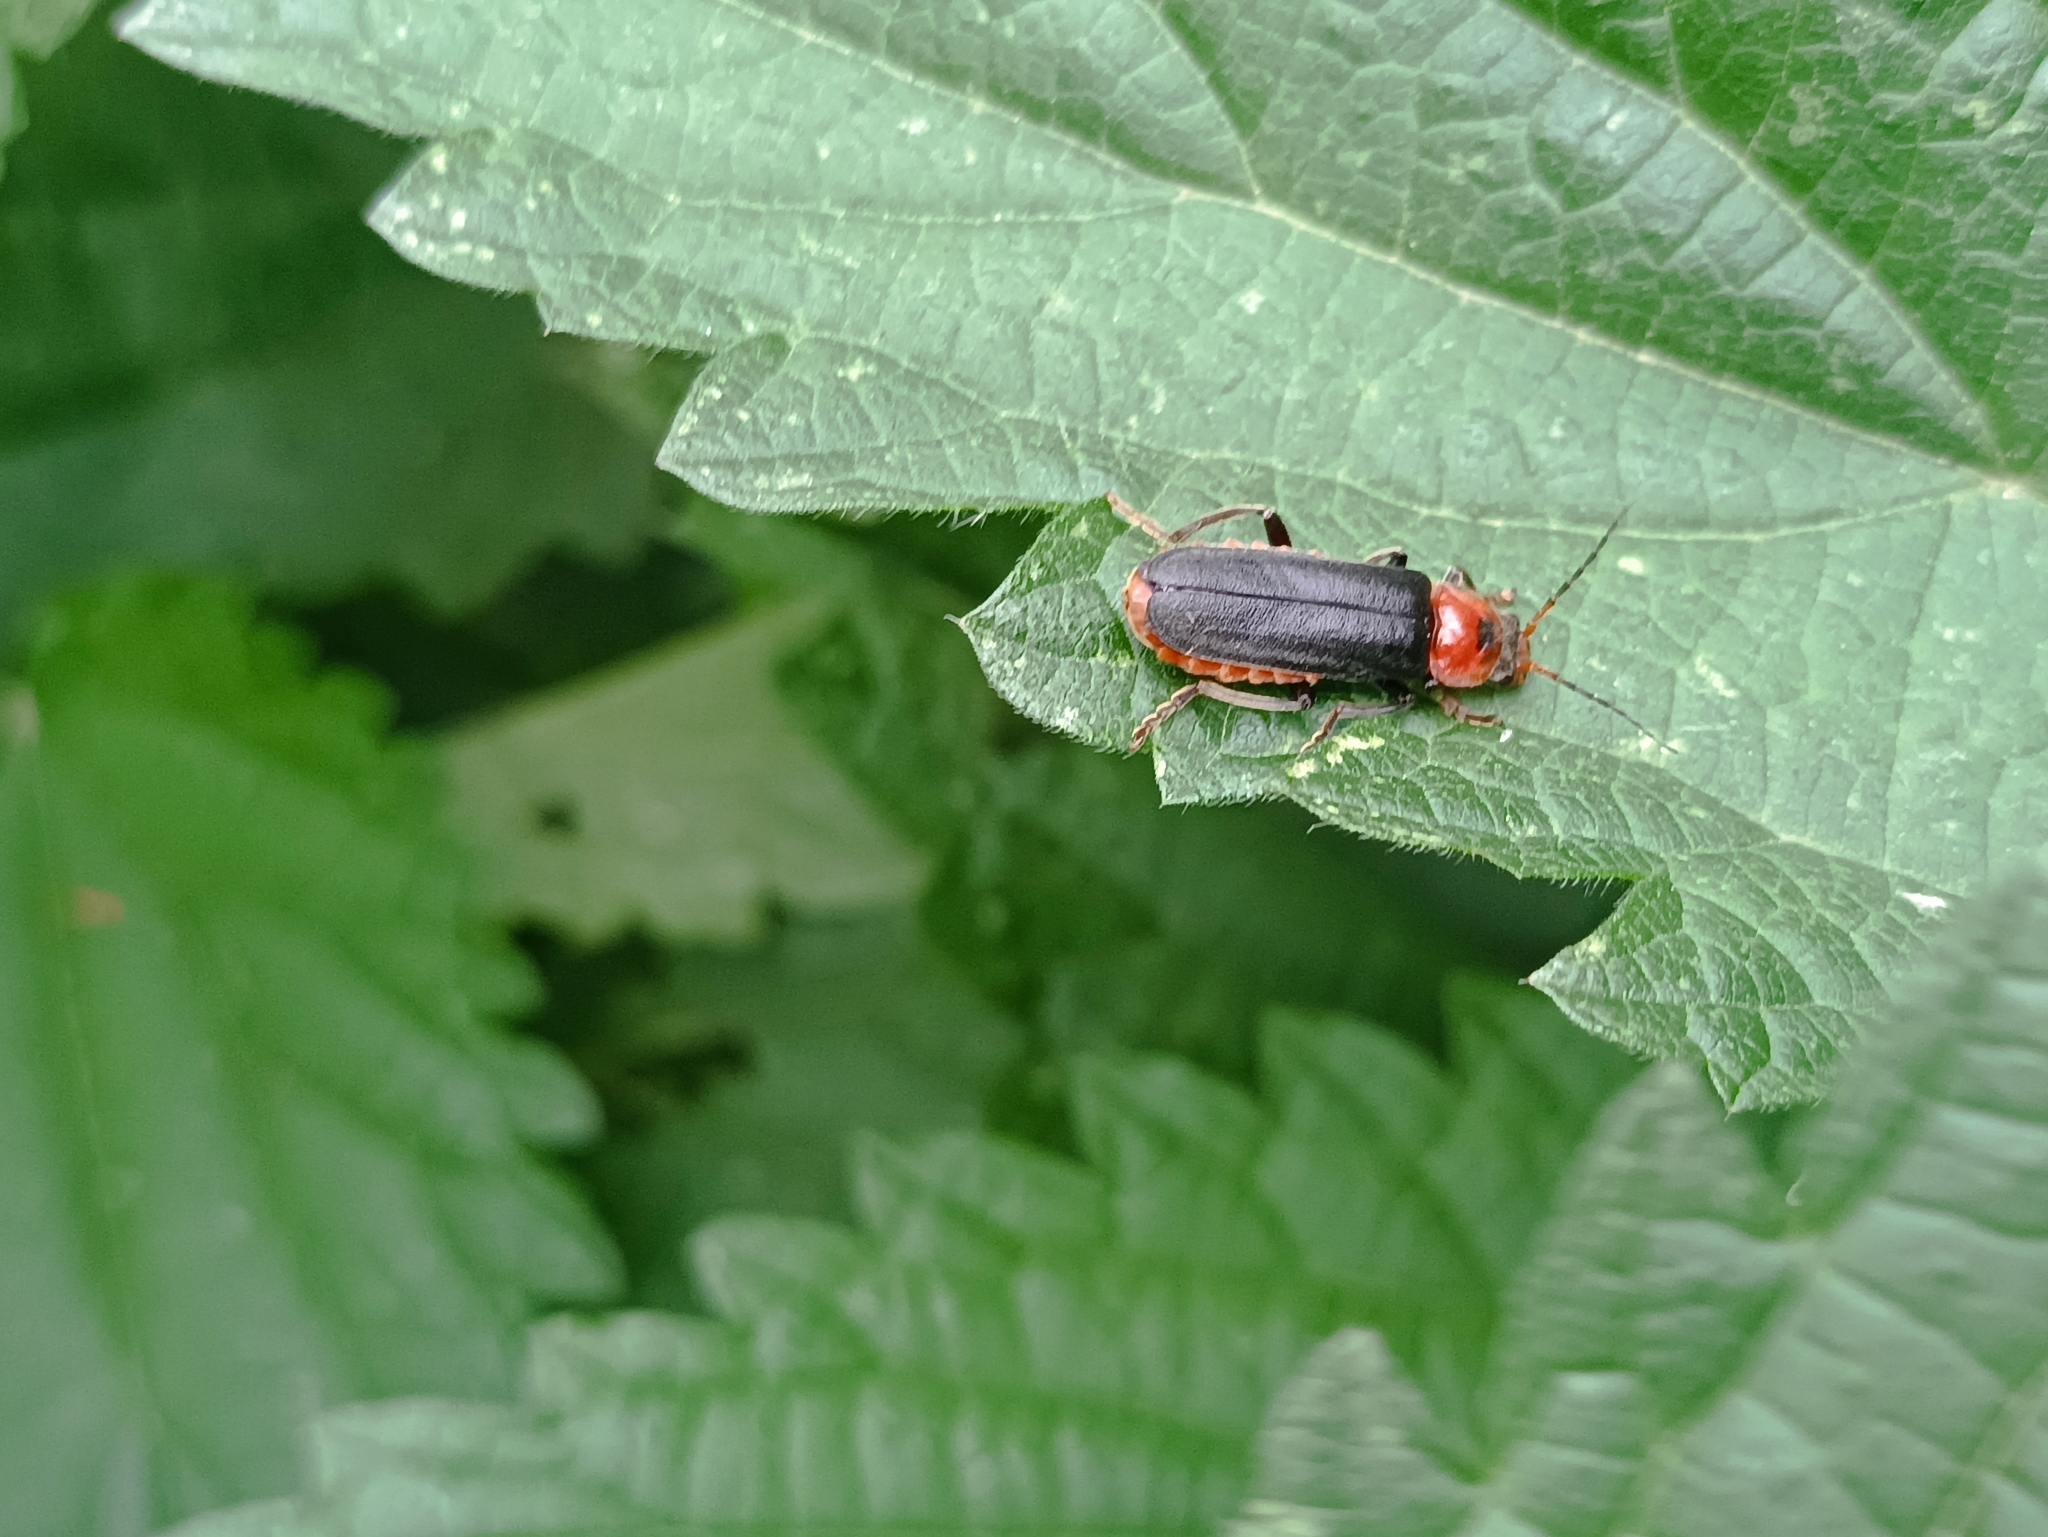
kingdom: Animalia
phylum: Arthropoda
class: Insecta
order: Coleoptera
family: Cantharidae
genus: Cantharis
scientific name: Cantharis fusca
